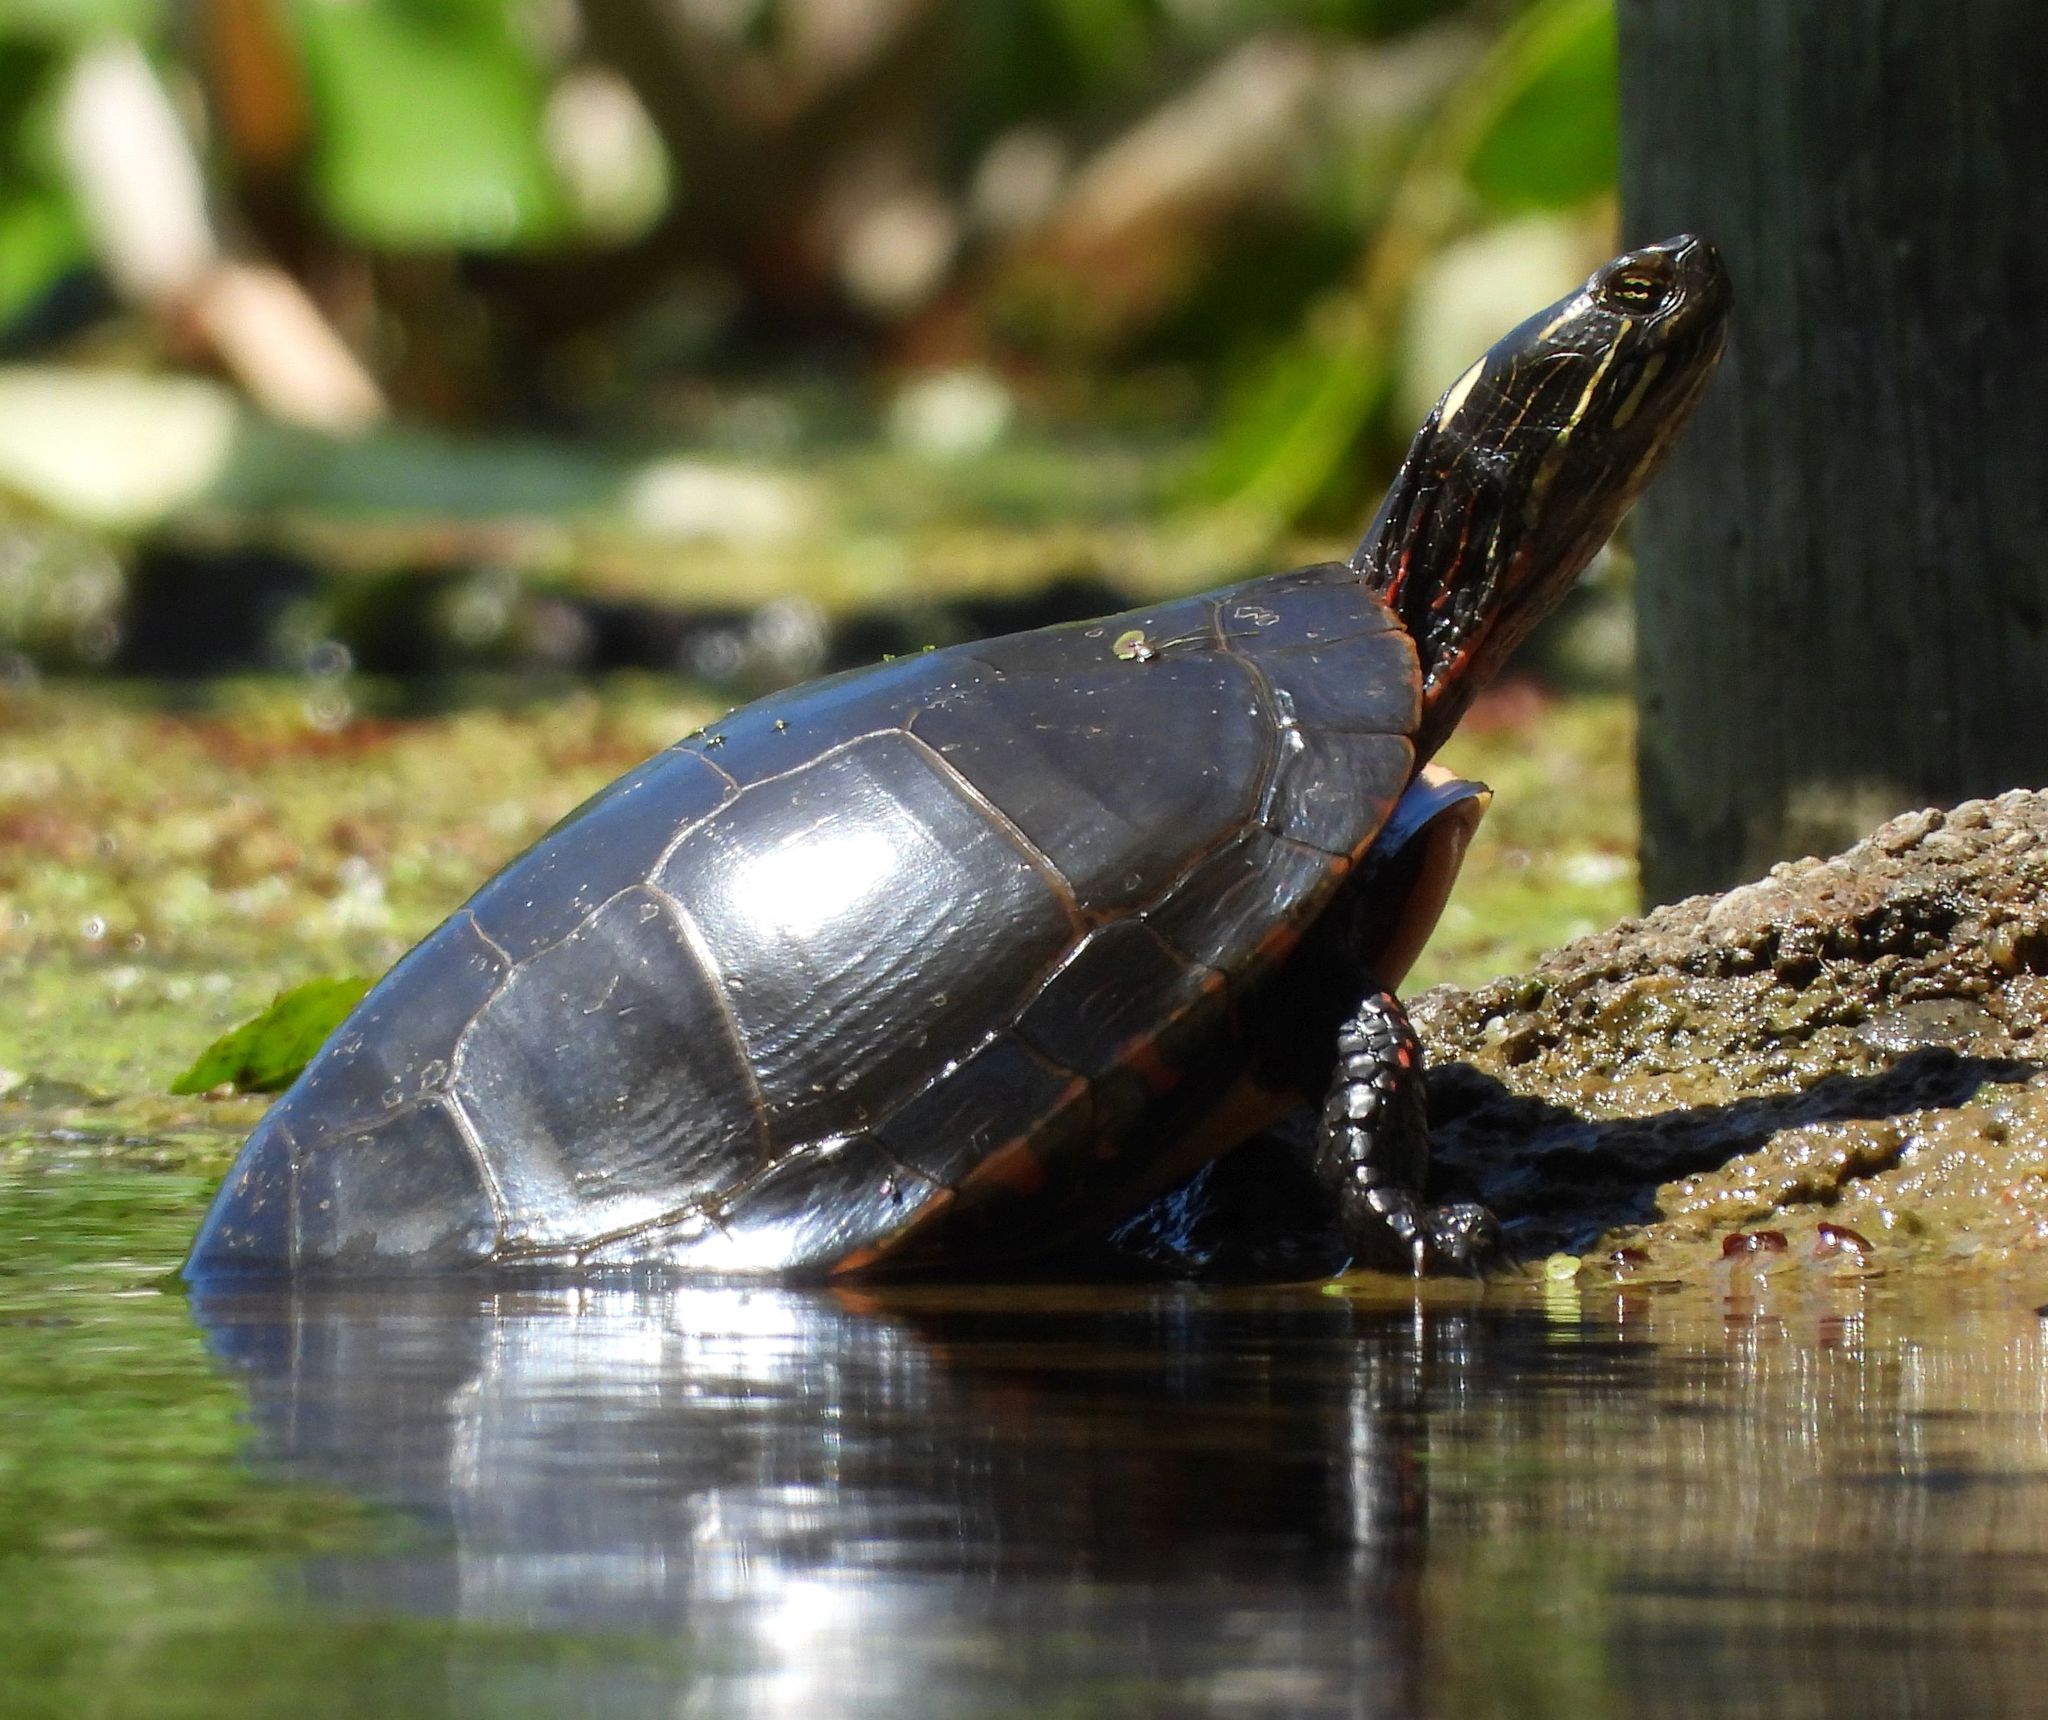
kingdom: Animalia
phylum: Chordata
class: Testudines
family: Emydidae
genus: Chrysemys
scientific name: Chrysemys picta
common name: Painted turtle
